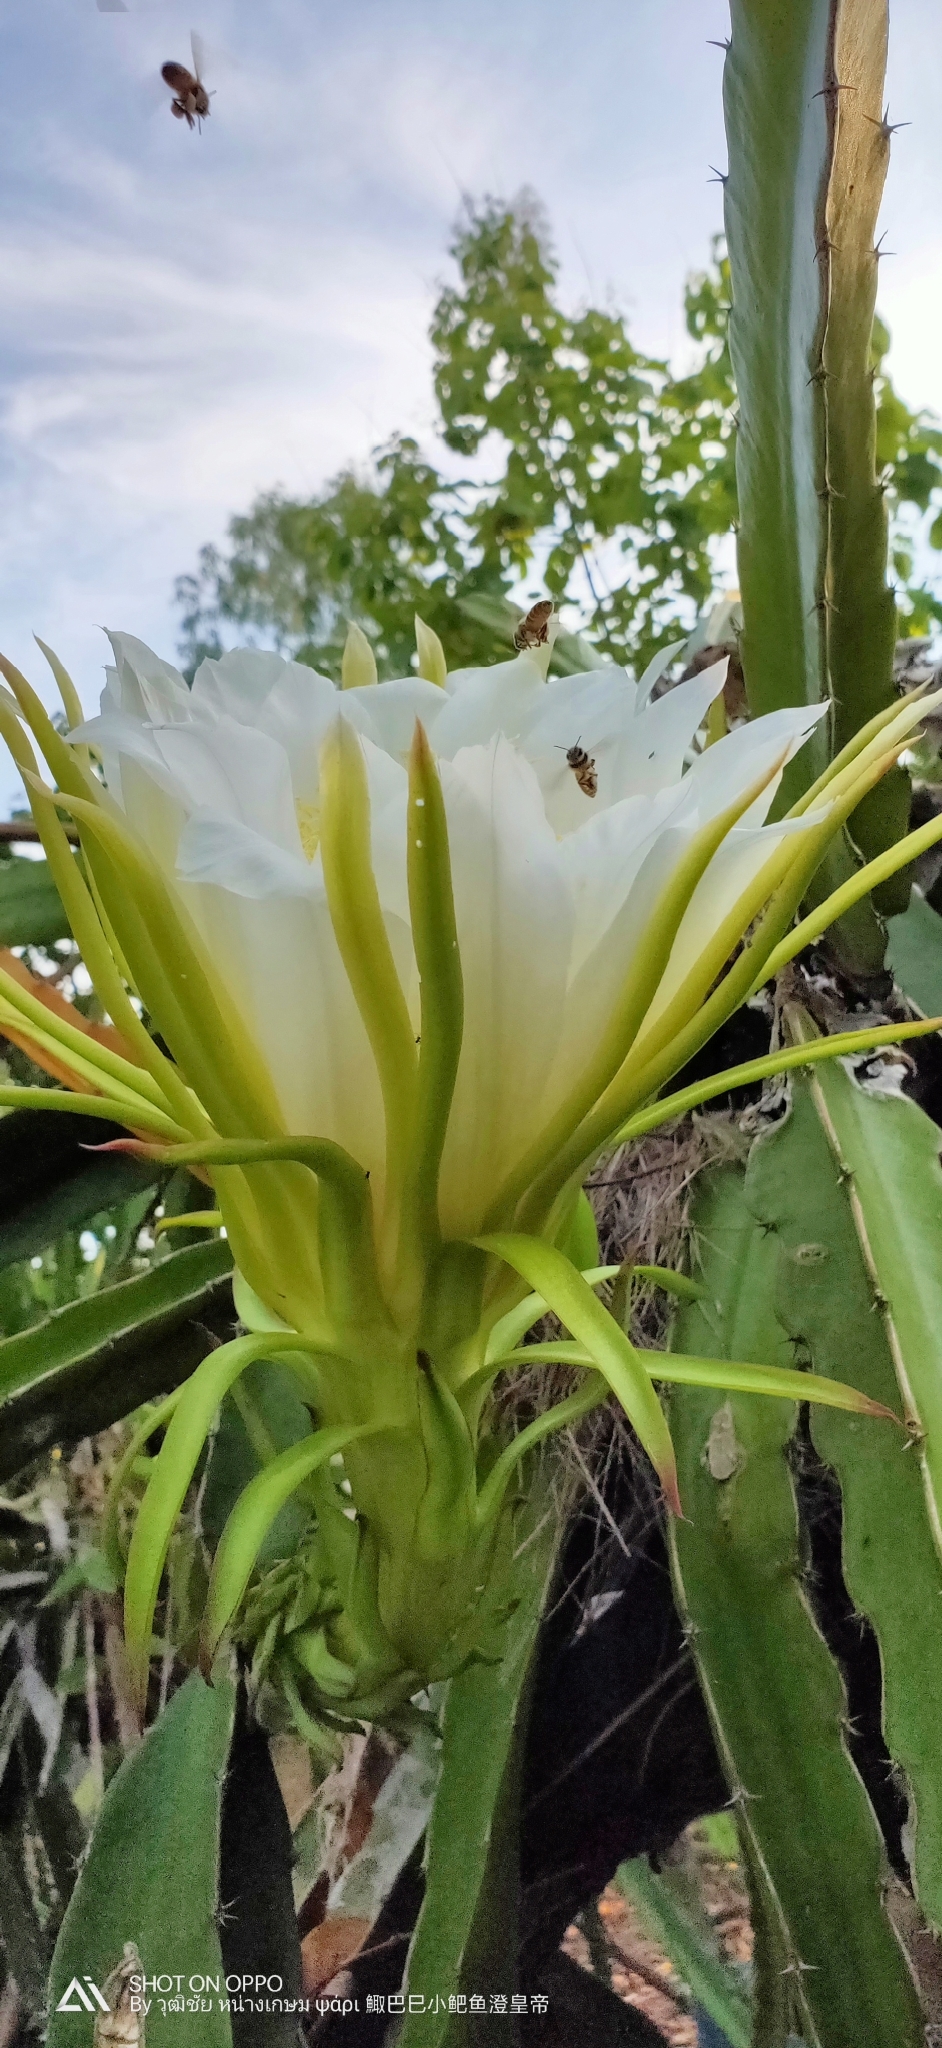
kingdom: Animalia
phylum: Arthropoda
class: Insecta
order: Hymenoptera
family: Apidae
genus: Apis
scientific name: Apis cerana
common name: Honey bee
